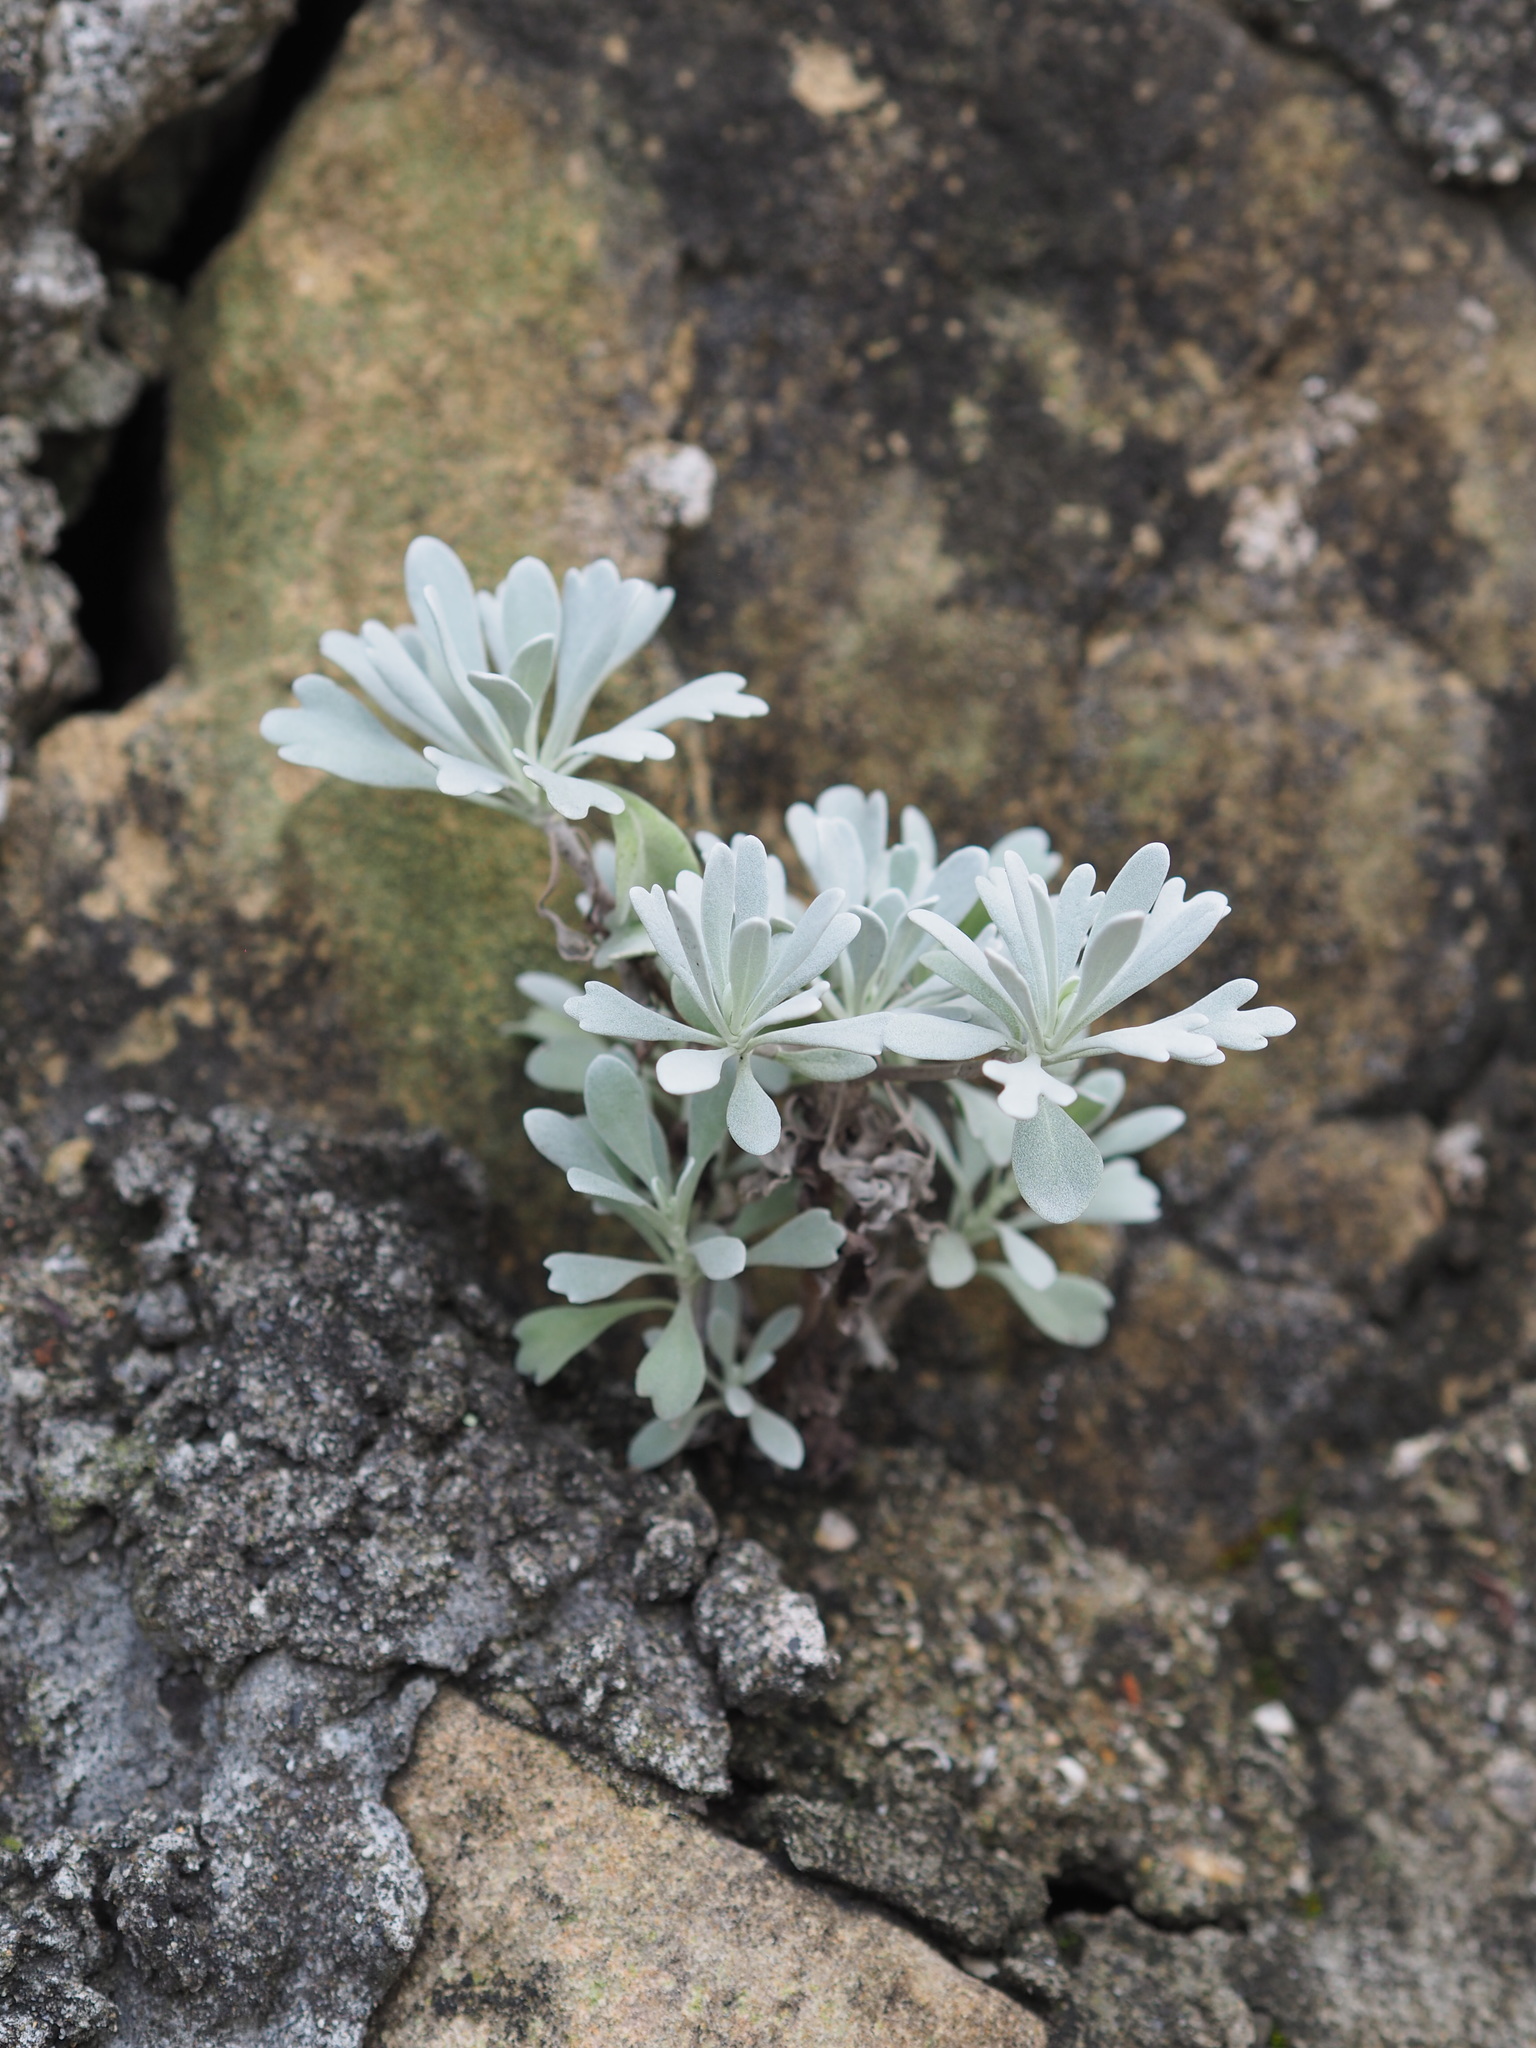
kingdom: Plantae
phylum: Tracheophyta
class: Magnoliopsida
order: Asterales
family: Asteraceae
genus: Crossostephium
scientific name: Crossostephium chinense
